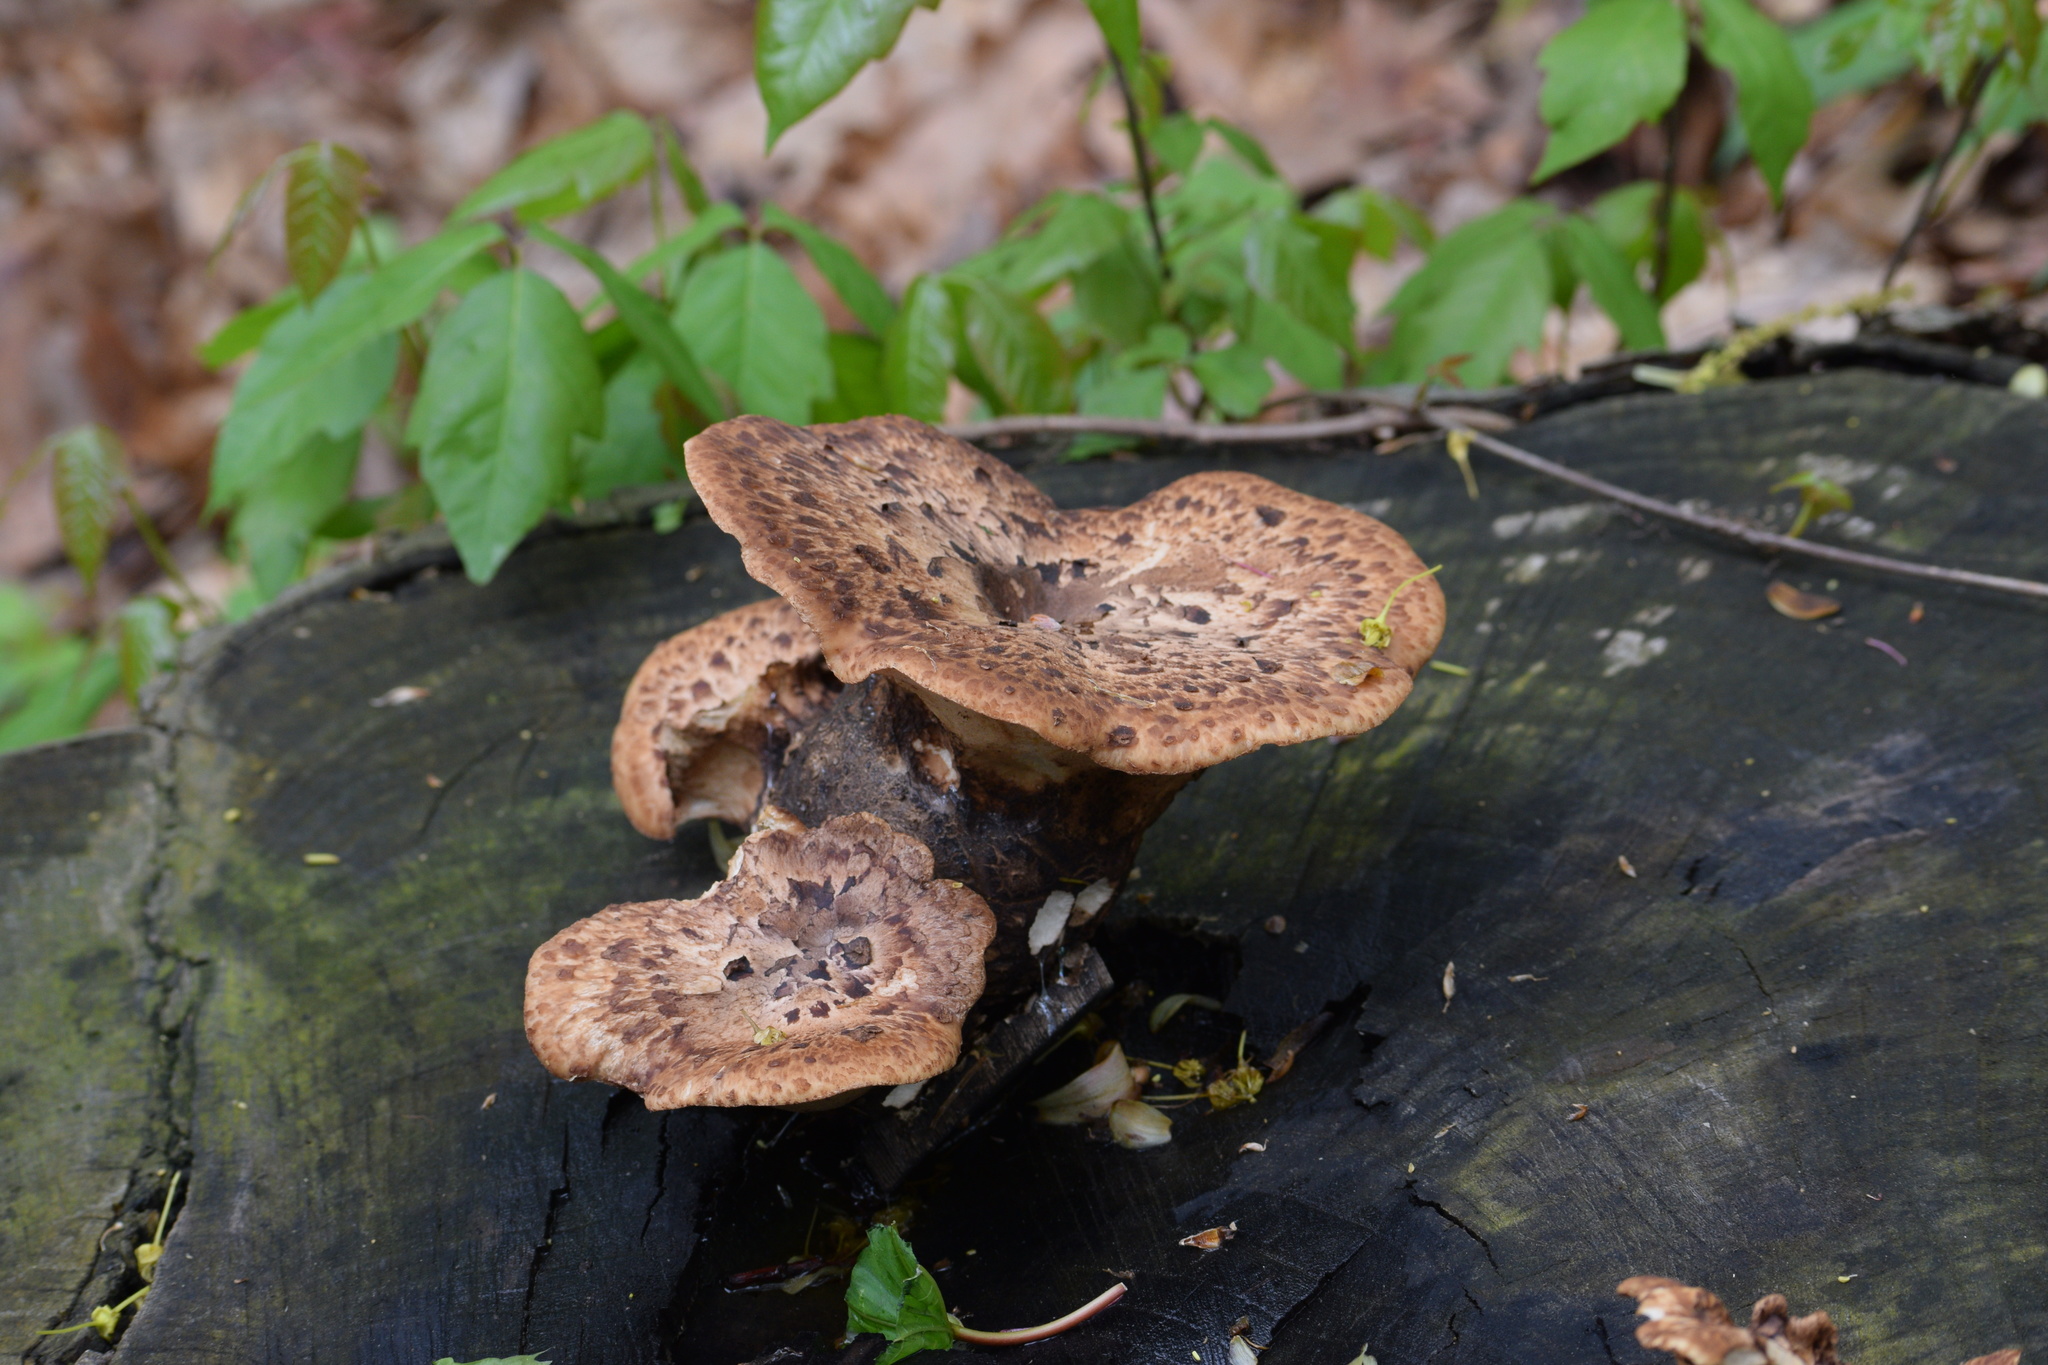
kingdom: Fungi
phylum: Basidiomycota
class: Agaricomycetes
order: Polyporales
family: Polyporaceae
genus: Cerioporus
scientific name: Cerioporus squamosus
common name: Dryad's saddle
